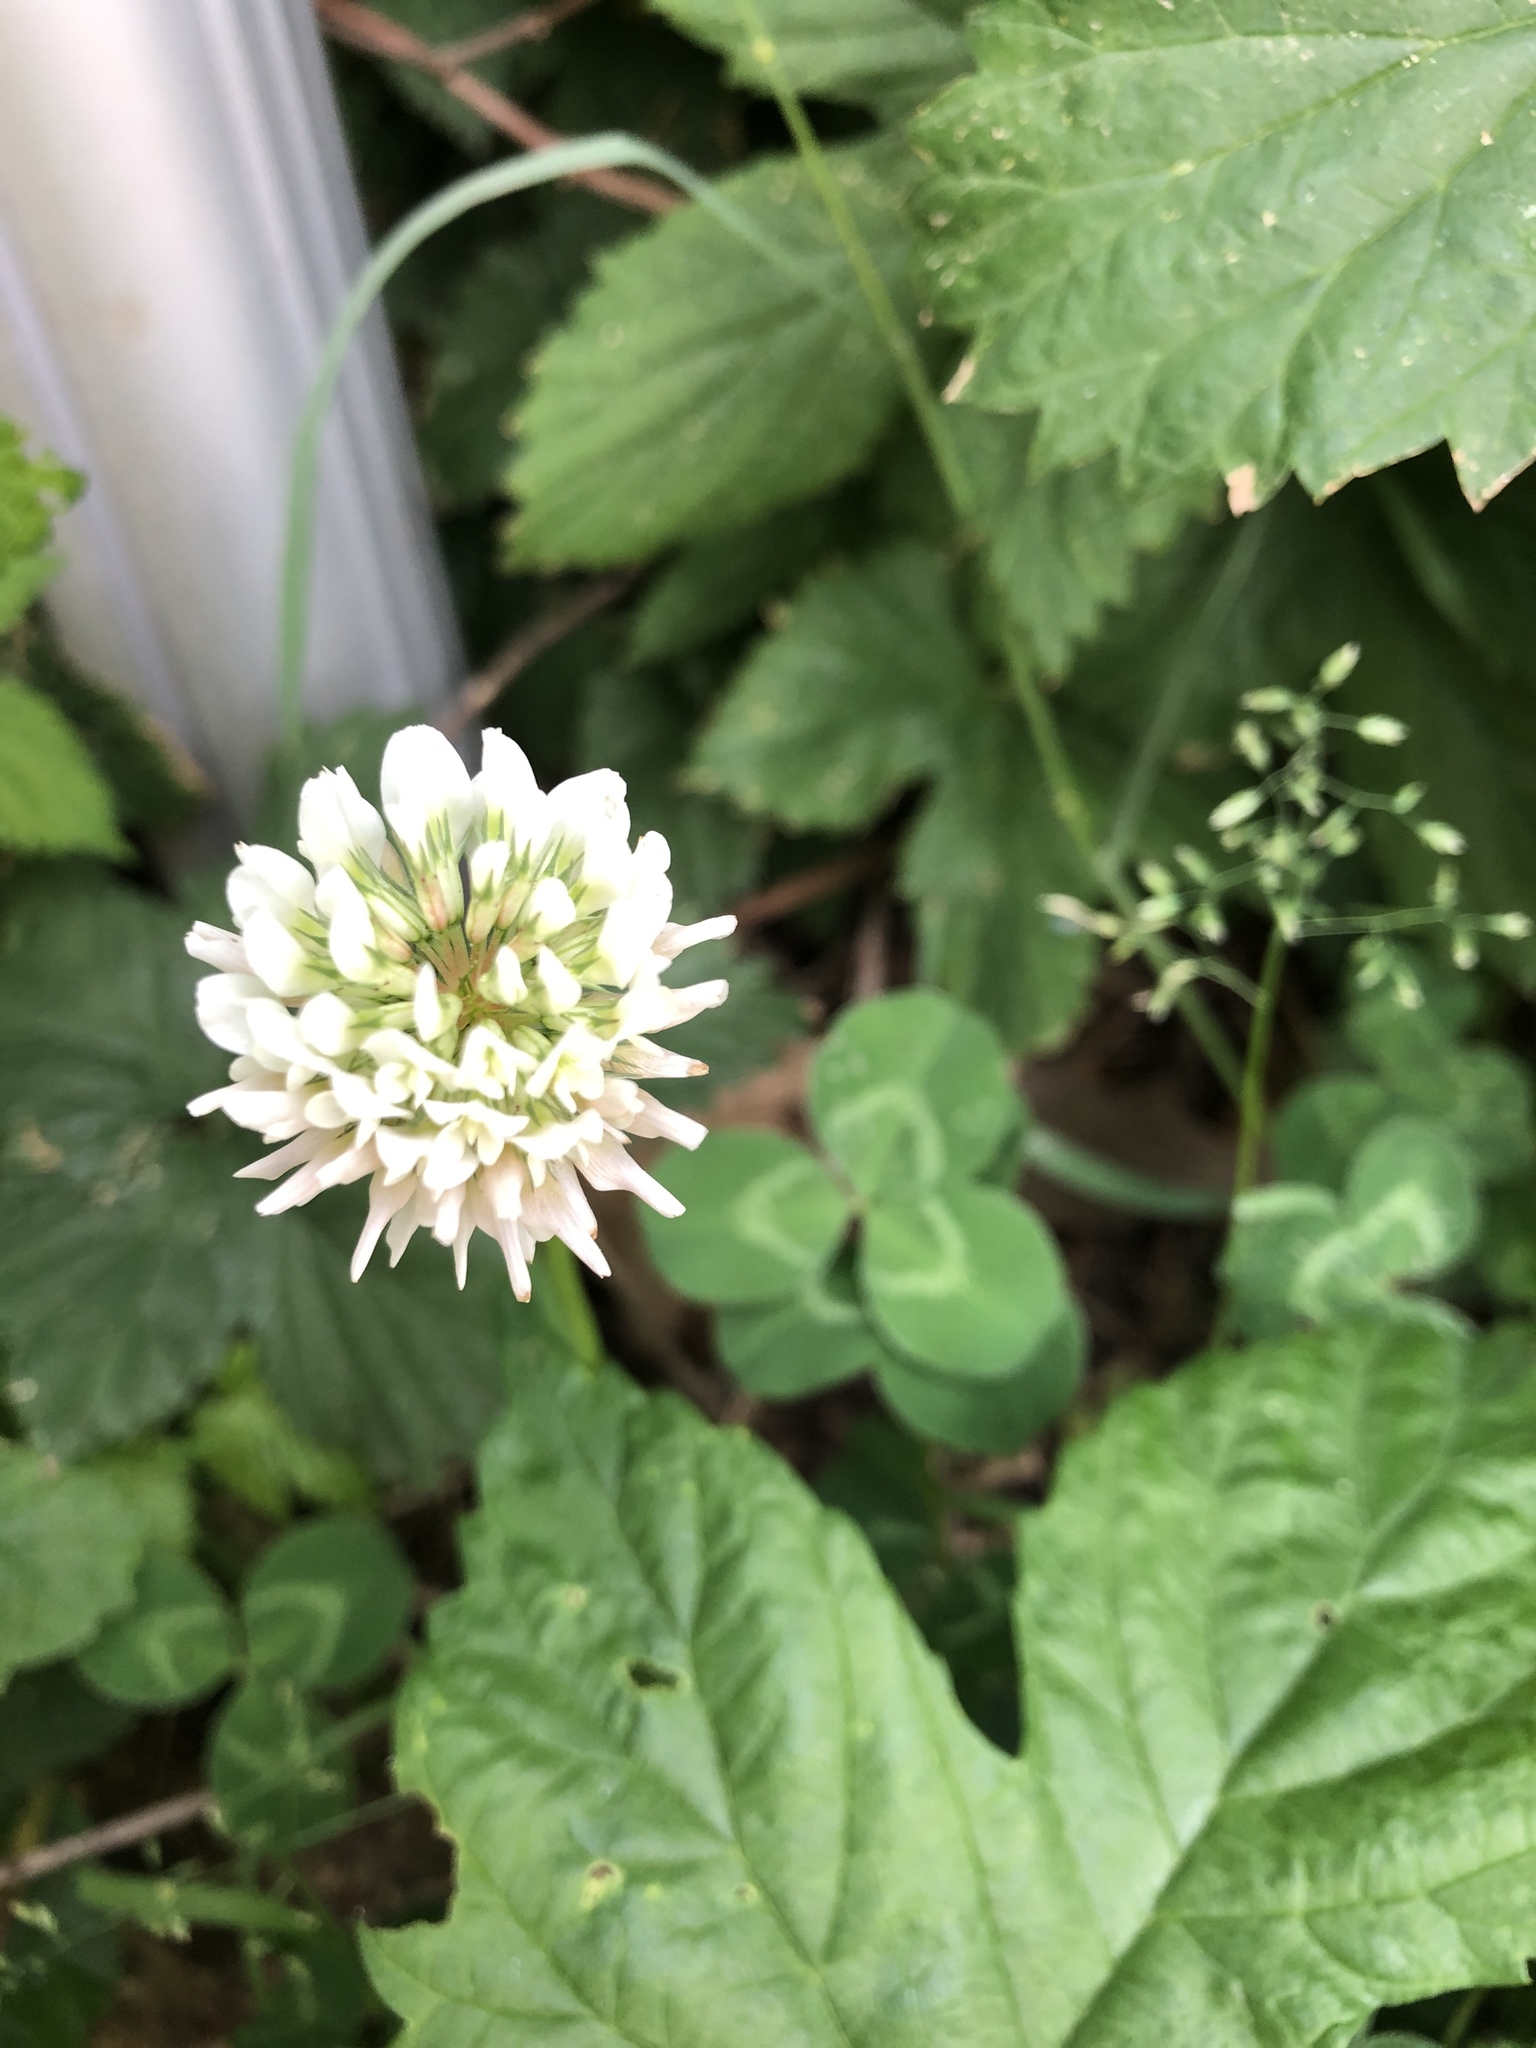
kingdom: Plantae
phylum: Tracheophyta
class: Magnoliopsida
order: Fabales
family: Fabaceae
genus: Trifolium
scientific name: Trifolium repens
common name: White clover
